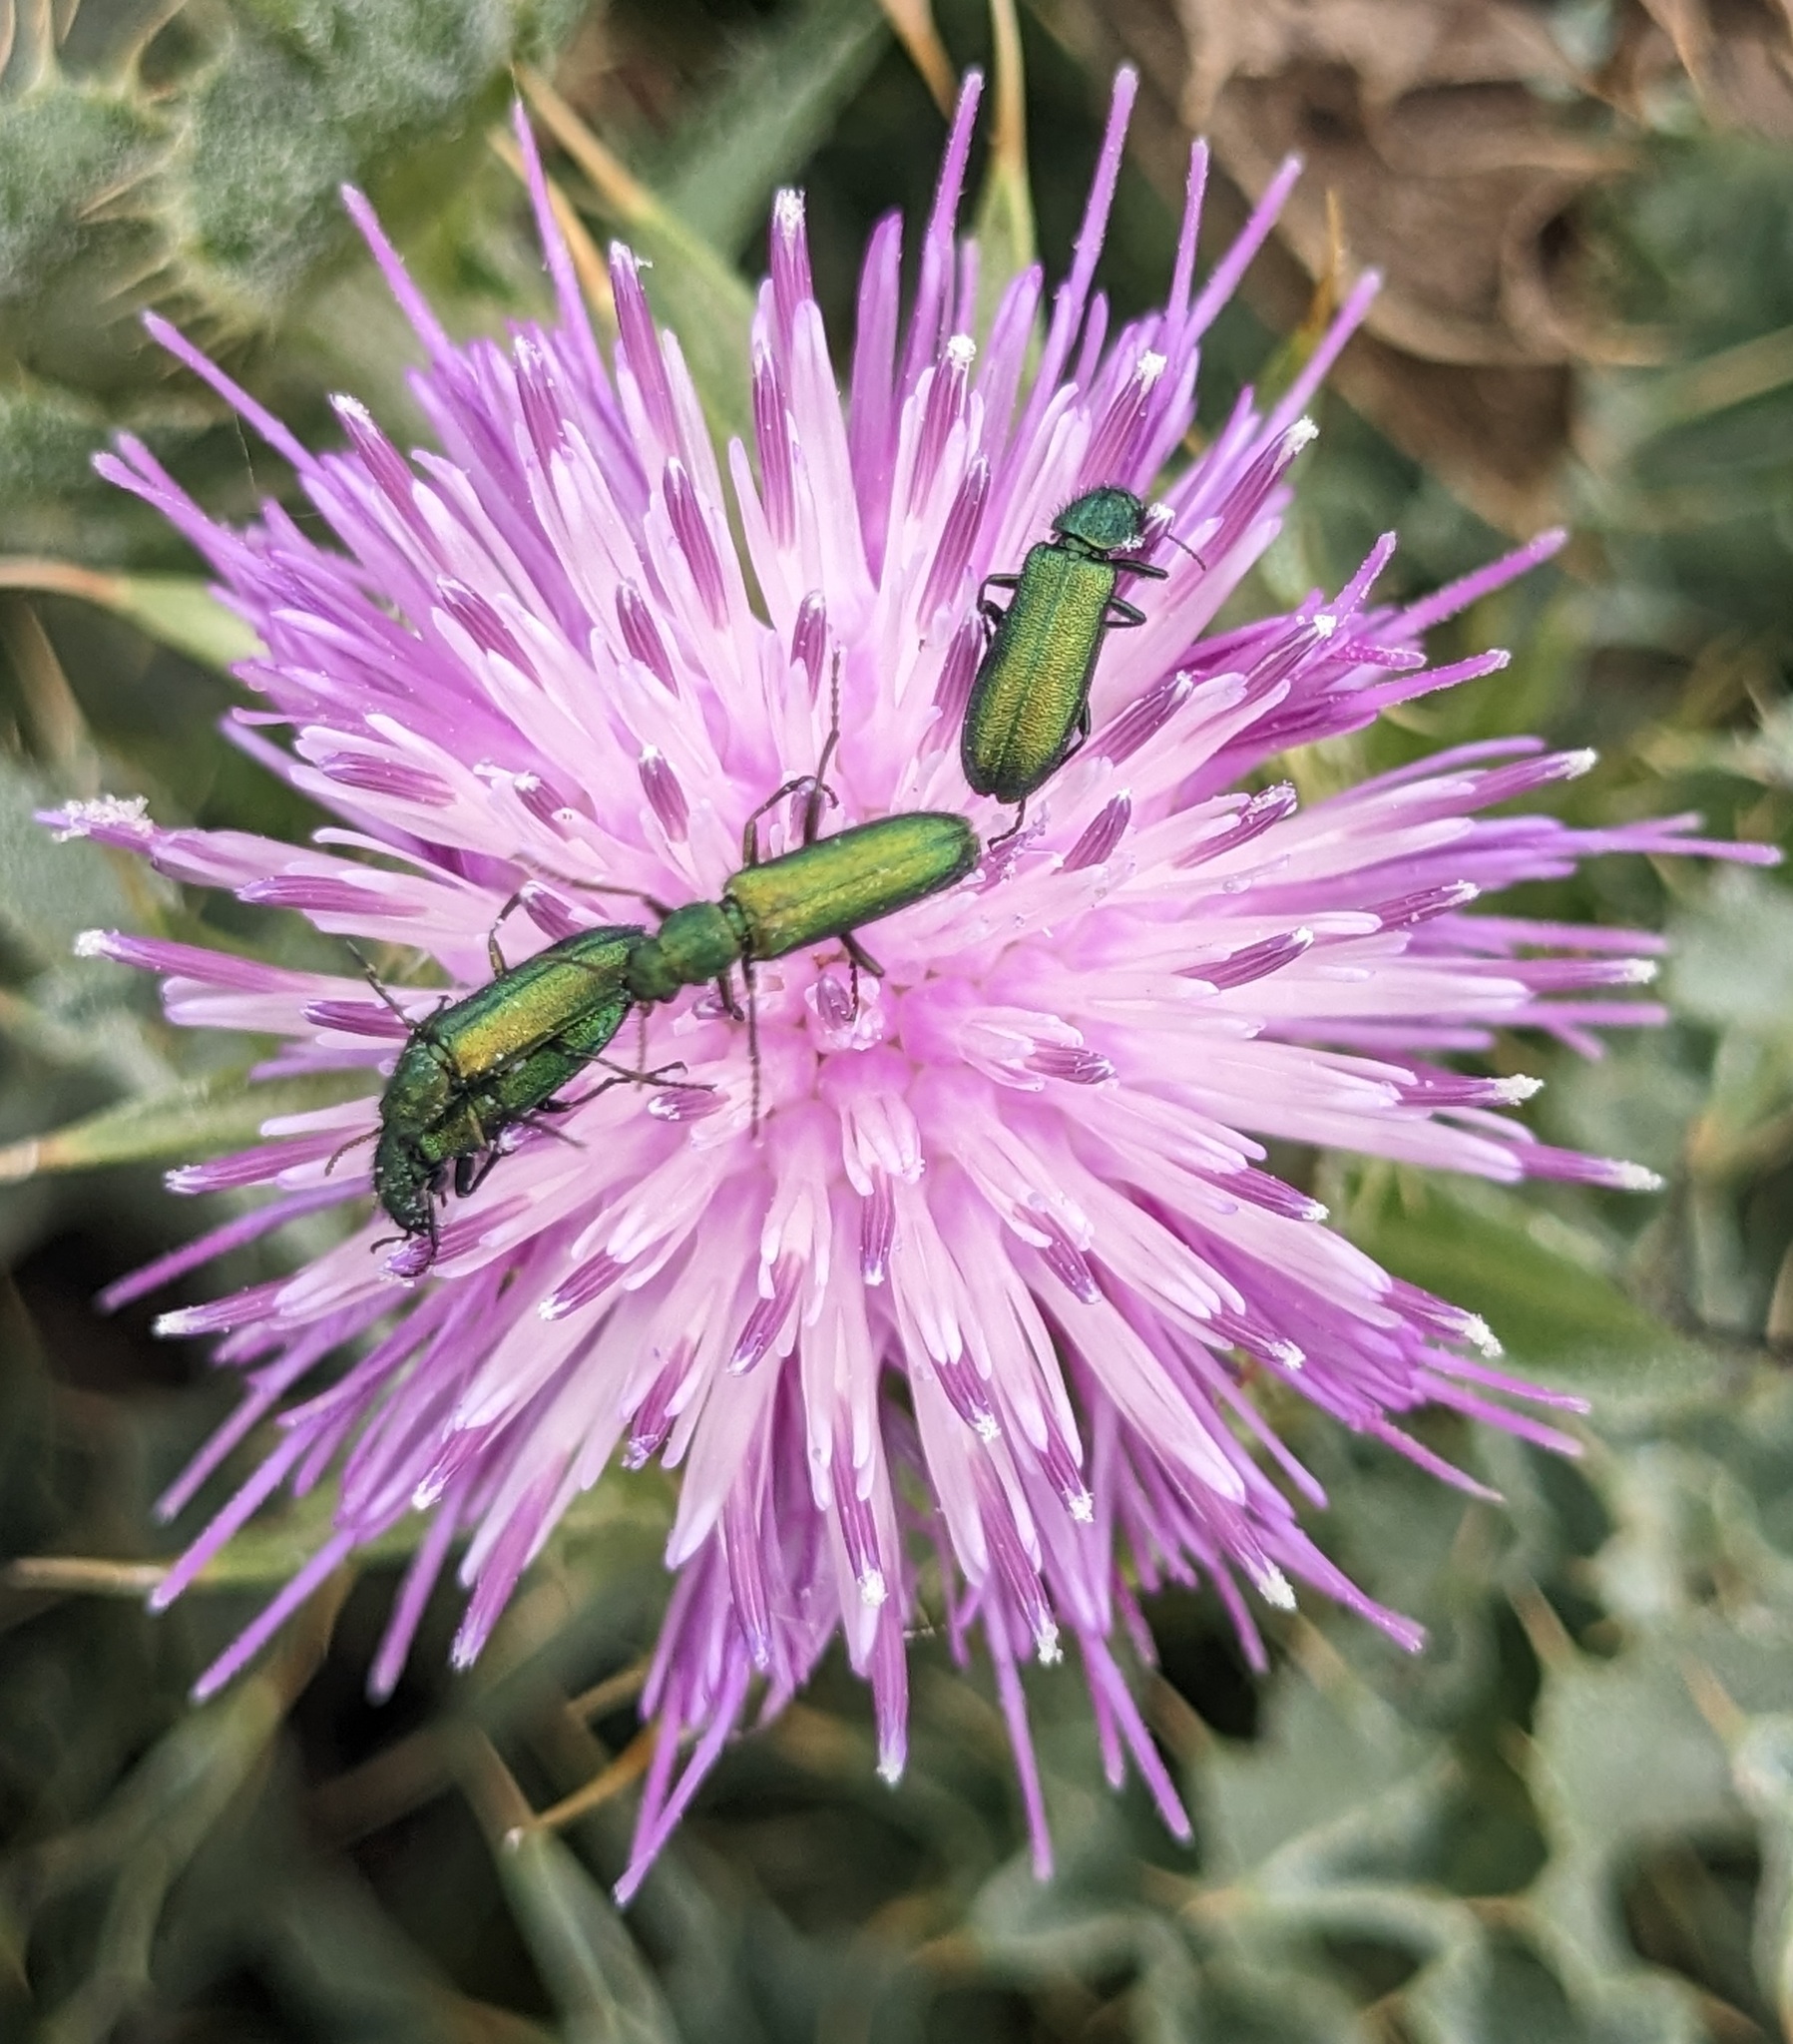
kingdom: Animalia
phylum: Arthropoda
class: Insecta
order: Coleoptera
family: Dasytidae
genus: Psilothrix
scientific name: Psilothrix viridicoerulea
